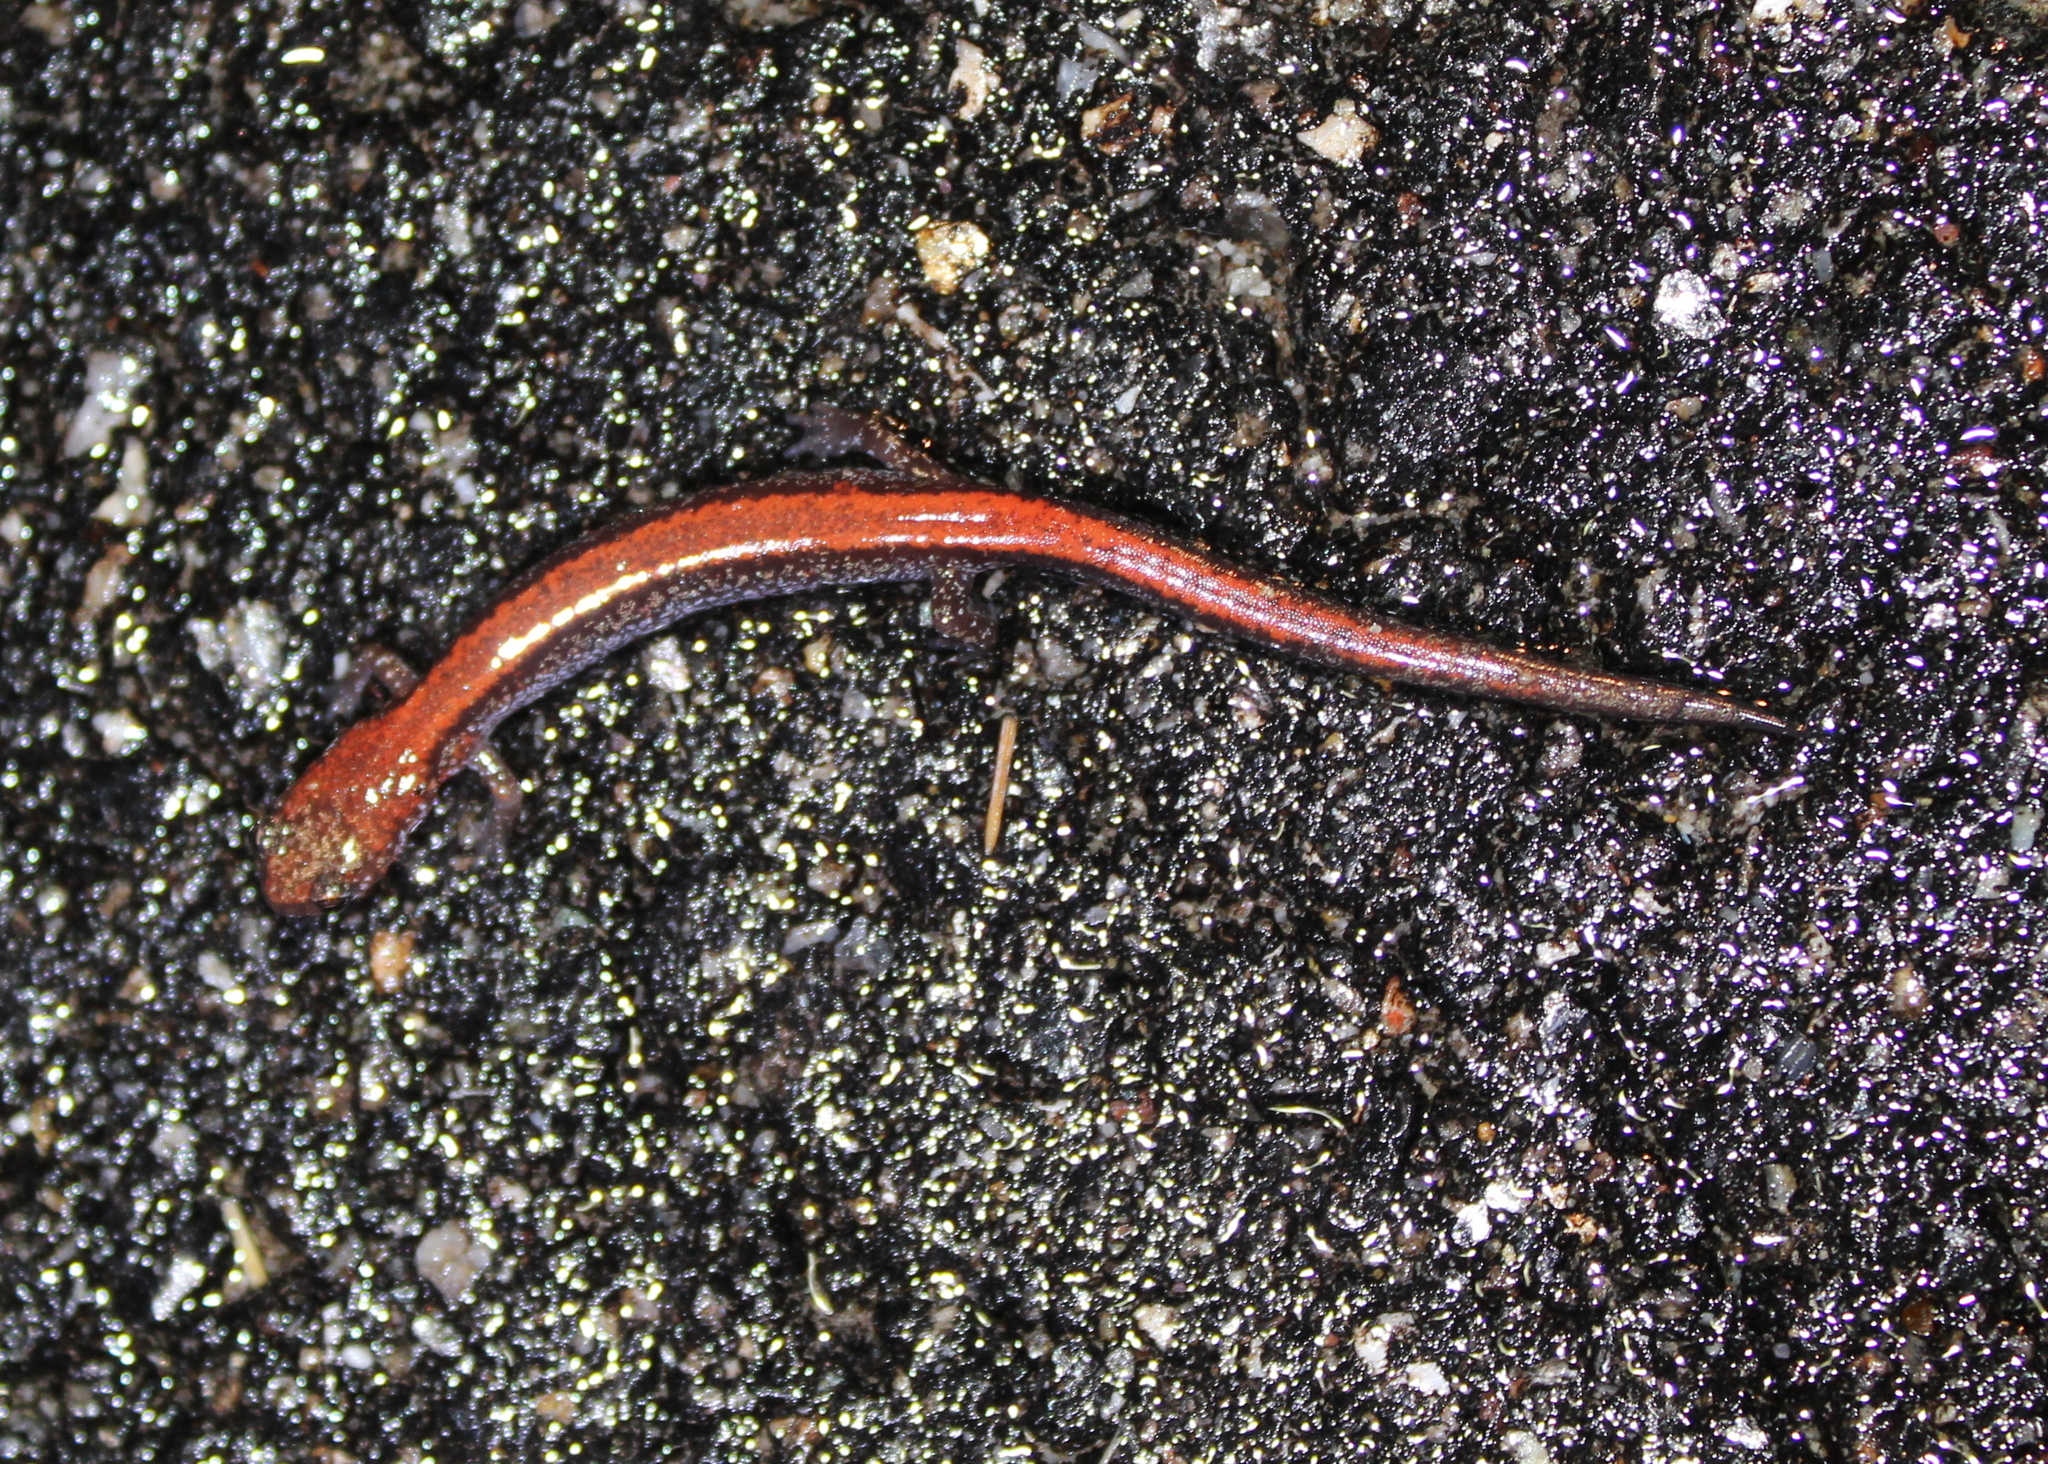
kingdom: Animalia
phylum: Chordata
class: Amphibia
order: Caudata
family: Plethodontidae
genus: Plethodon
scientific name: Plethodon cinereus
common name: Redback salamander
